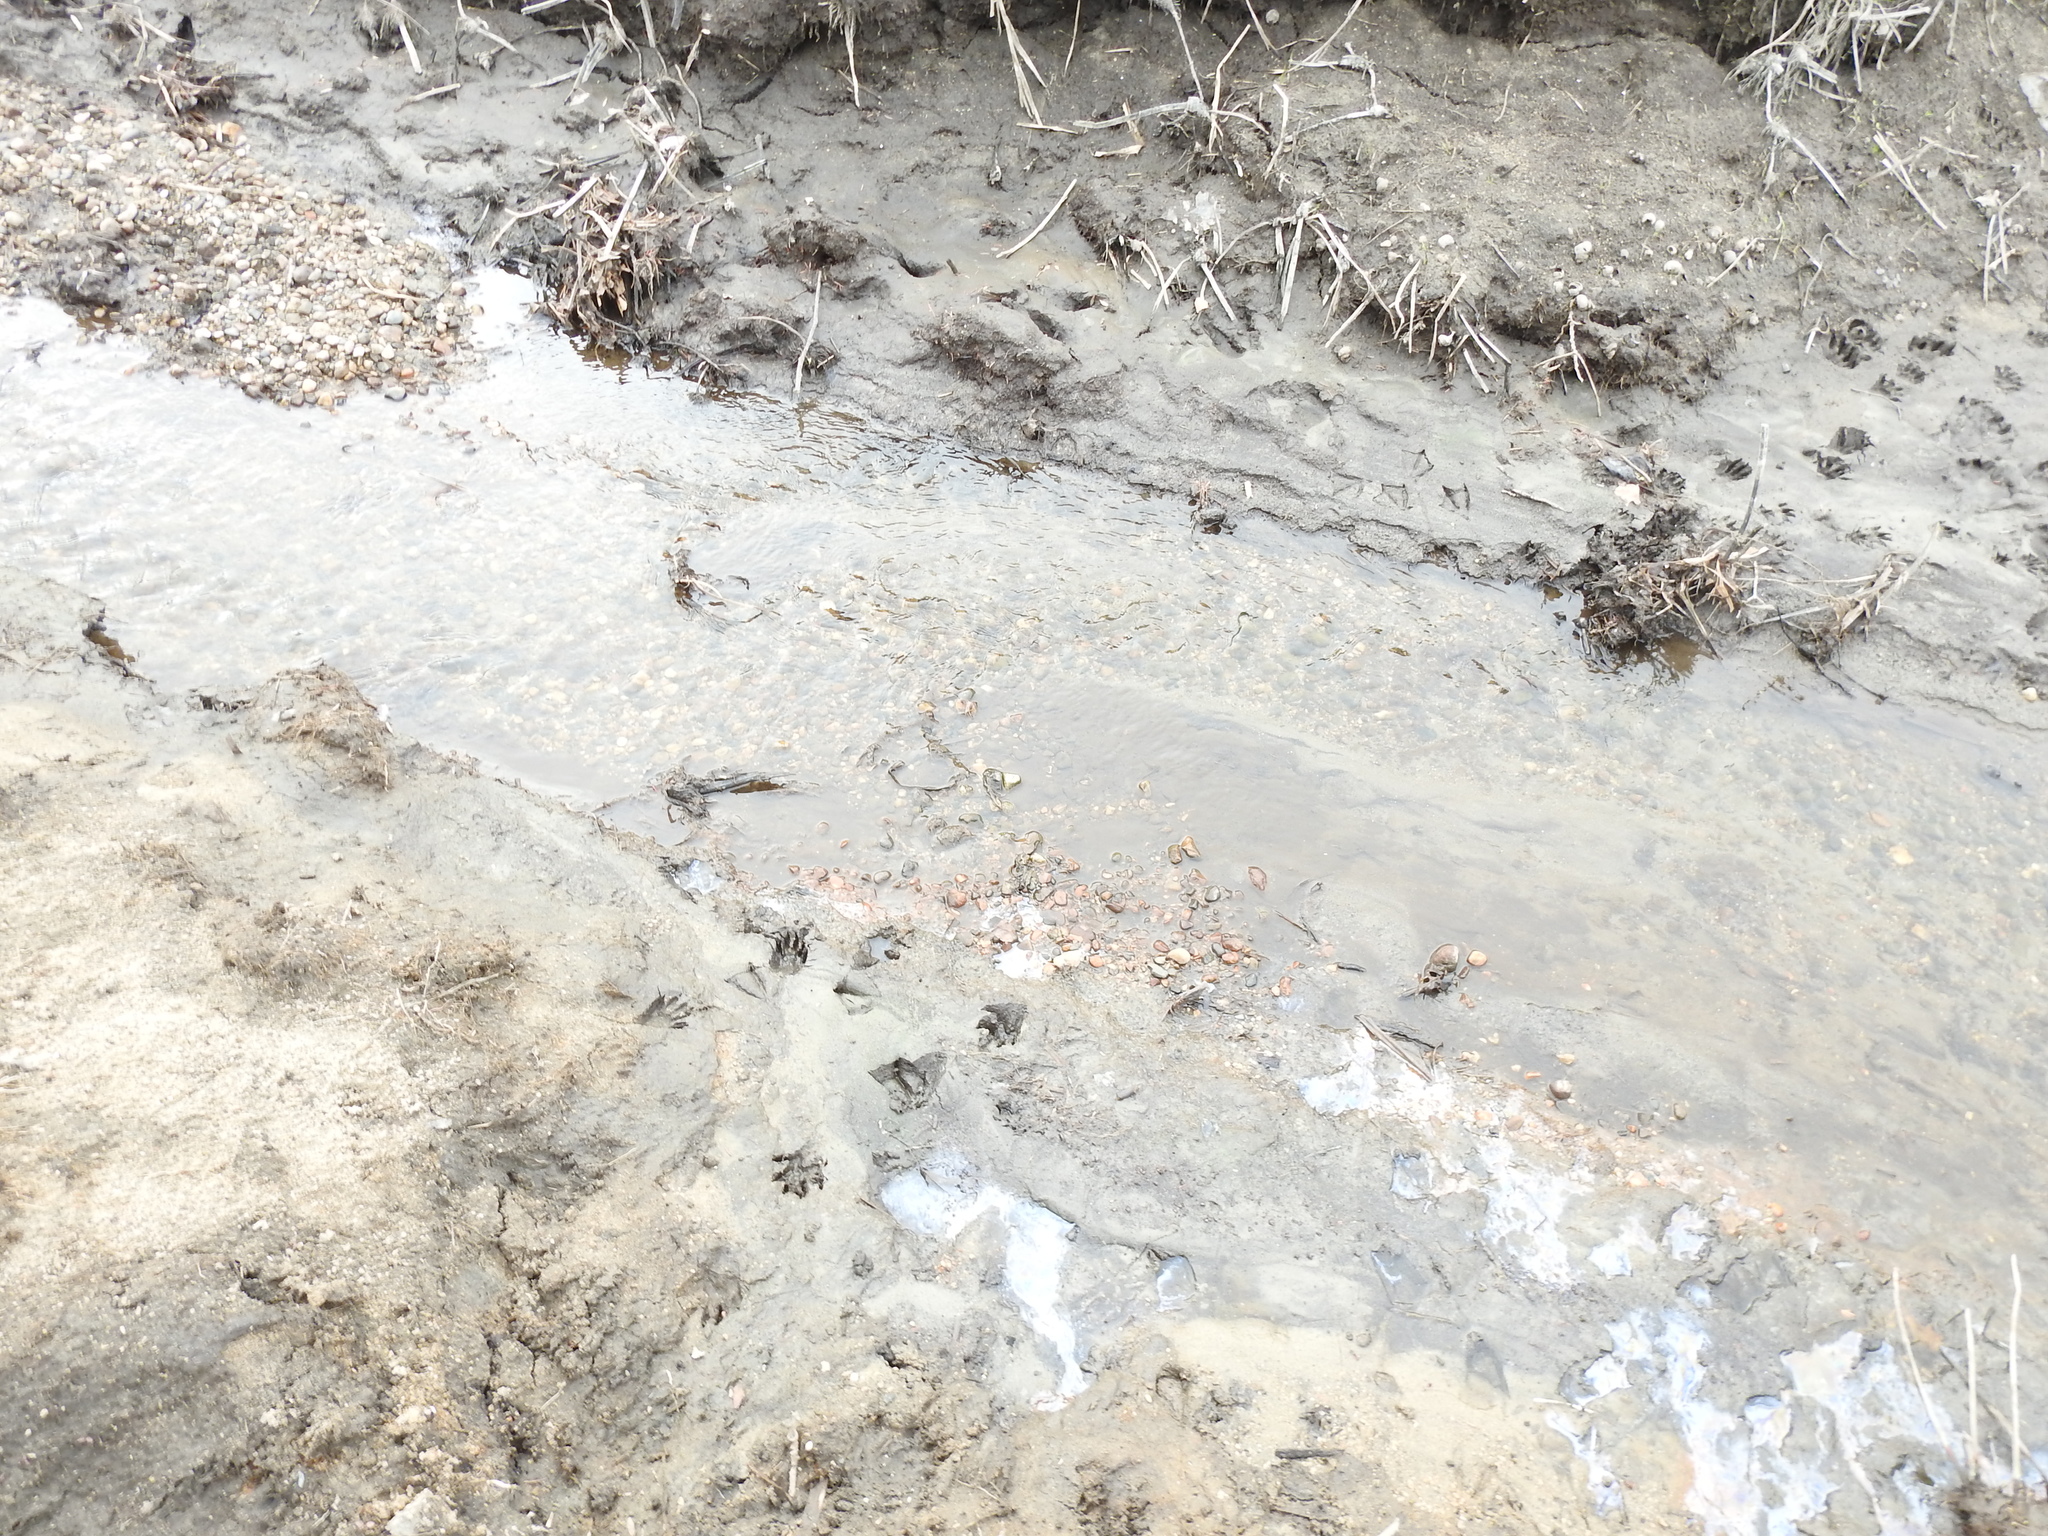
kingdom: Animalia
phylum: Chordata
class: Mammalia
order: Carnivora
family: Procyonidae
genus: Procyon
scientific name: Procyon lotor
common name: Raccoon
